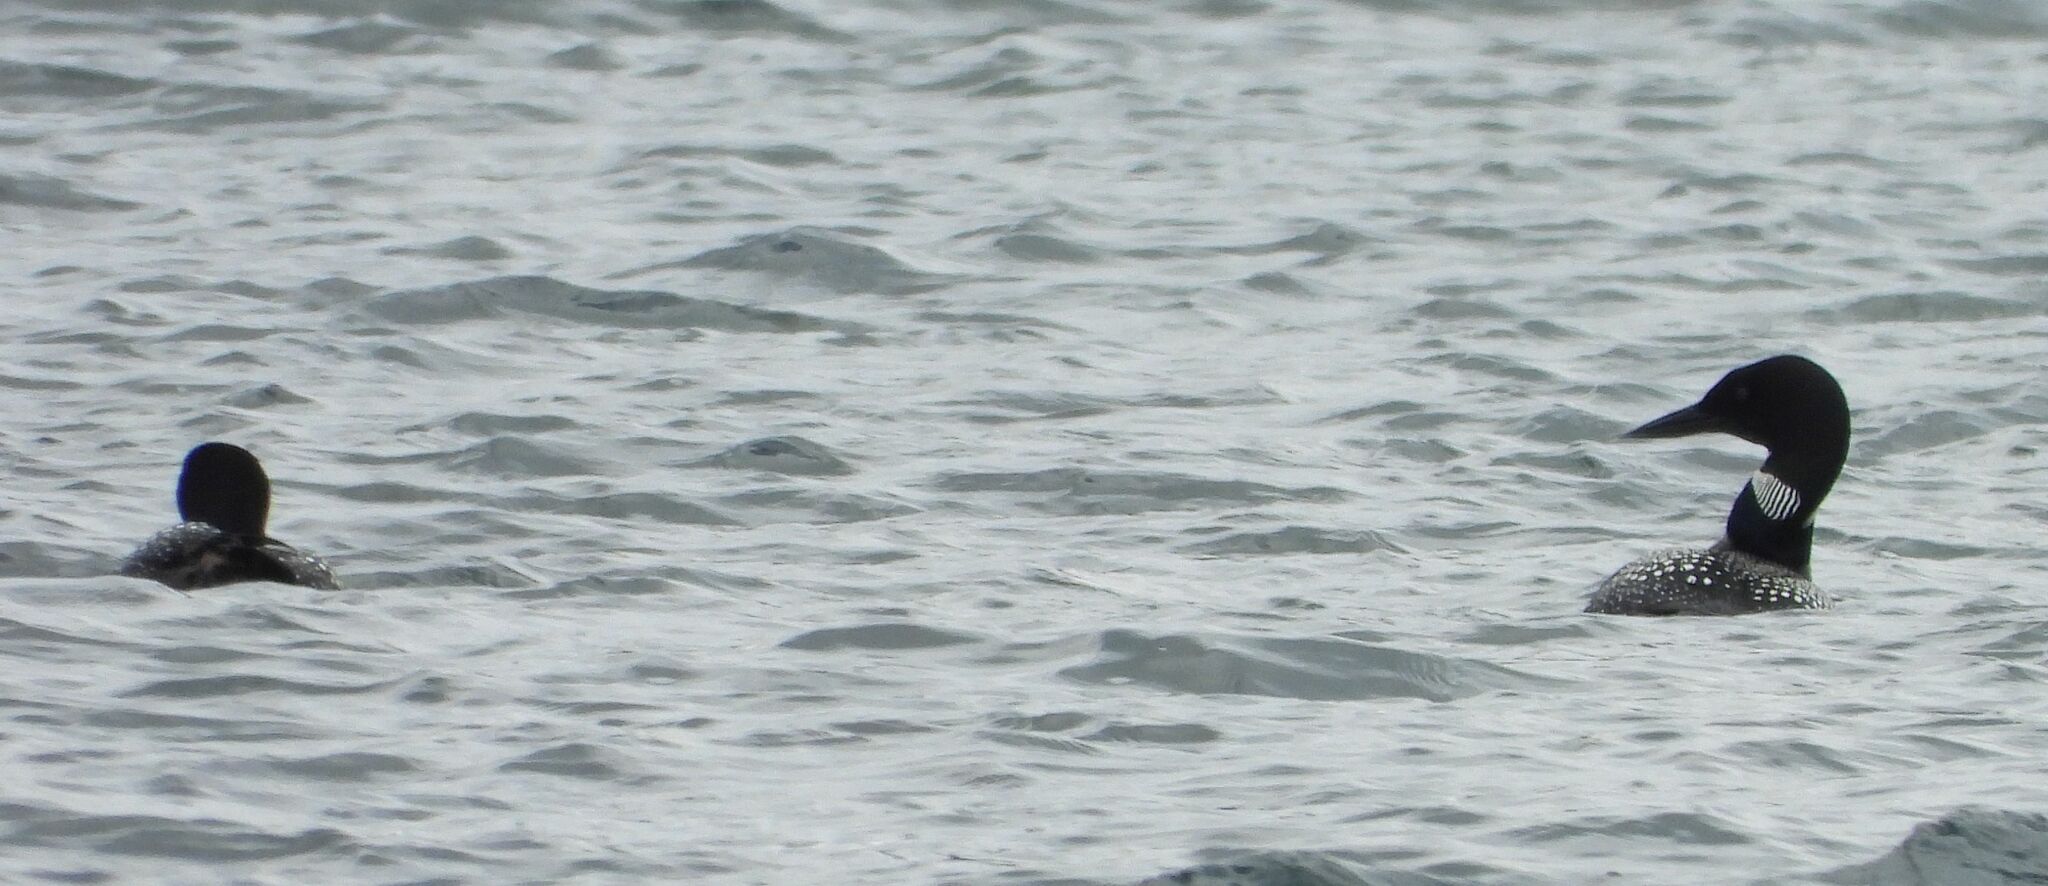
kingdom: Animalia
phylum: Chordata
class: Aves
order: Gaviiformes
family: Gaviidae
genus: Gavia
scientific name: Gavia immer
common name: Common loon
